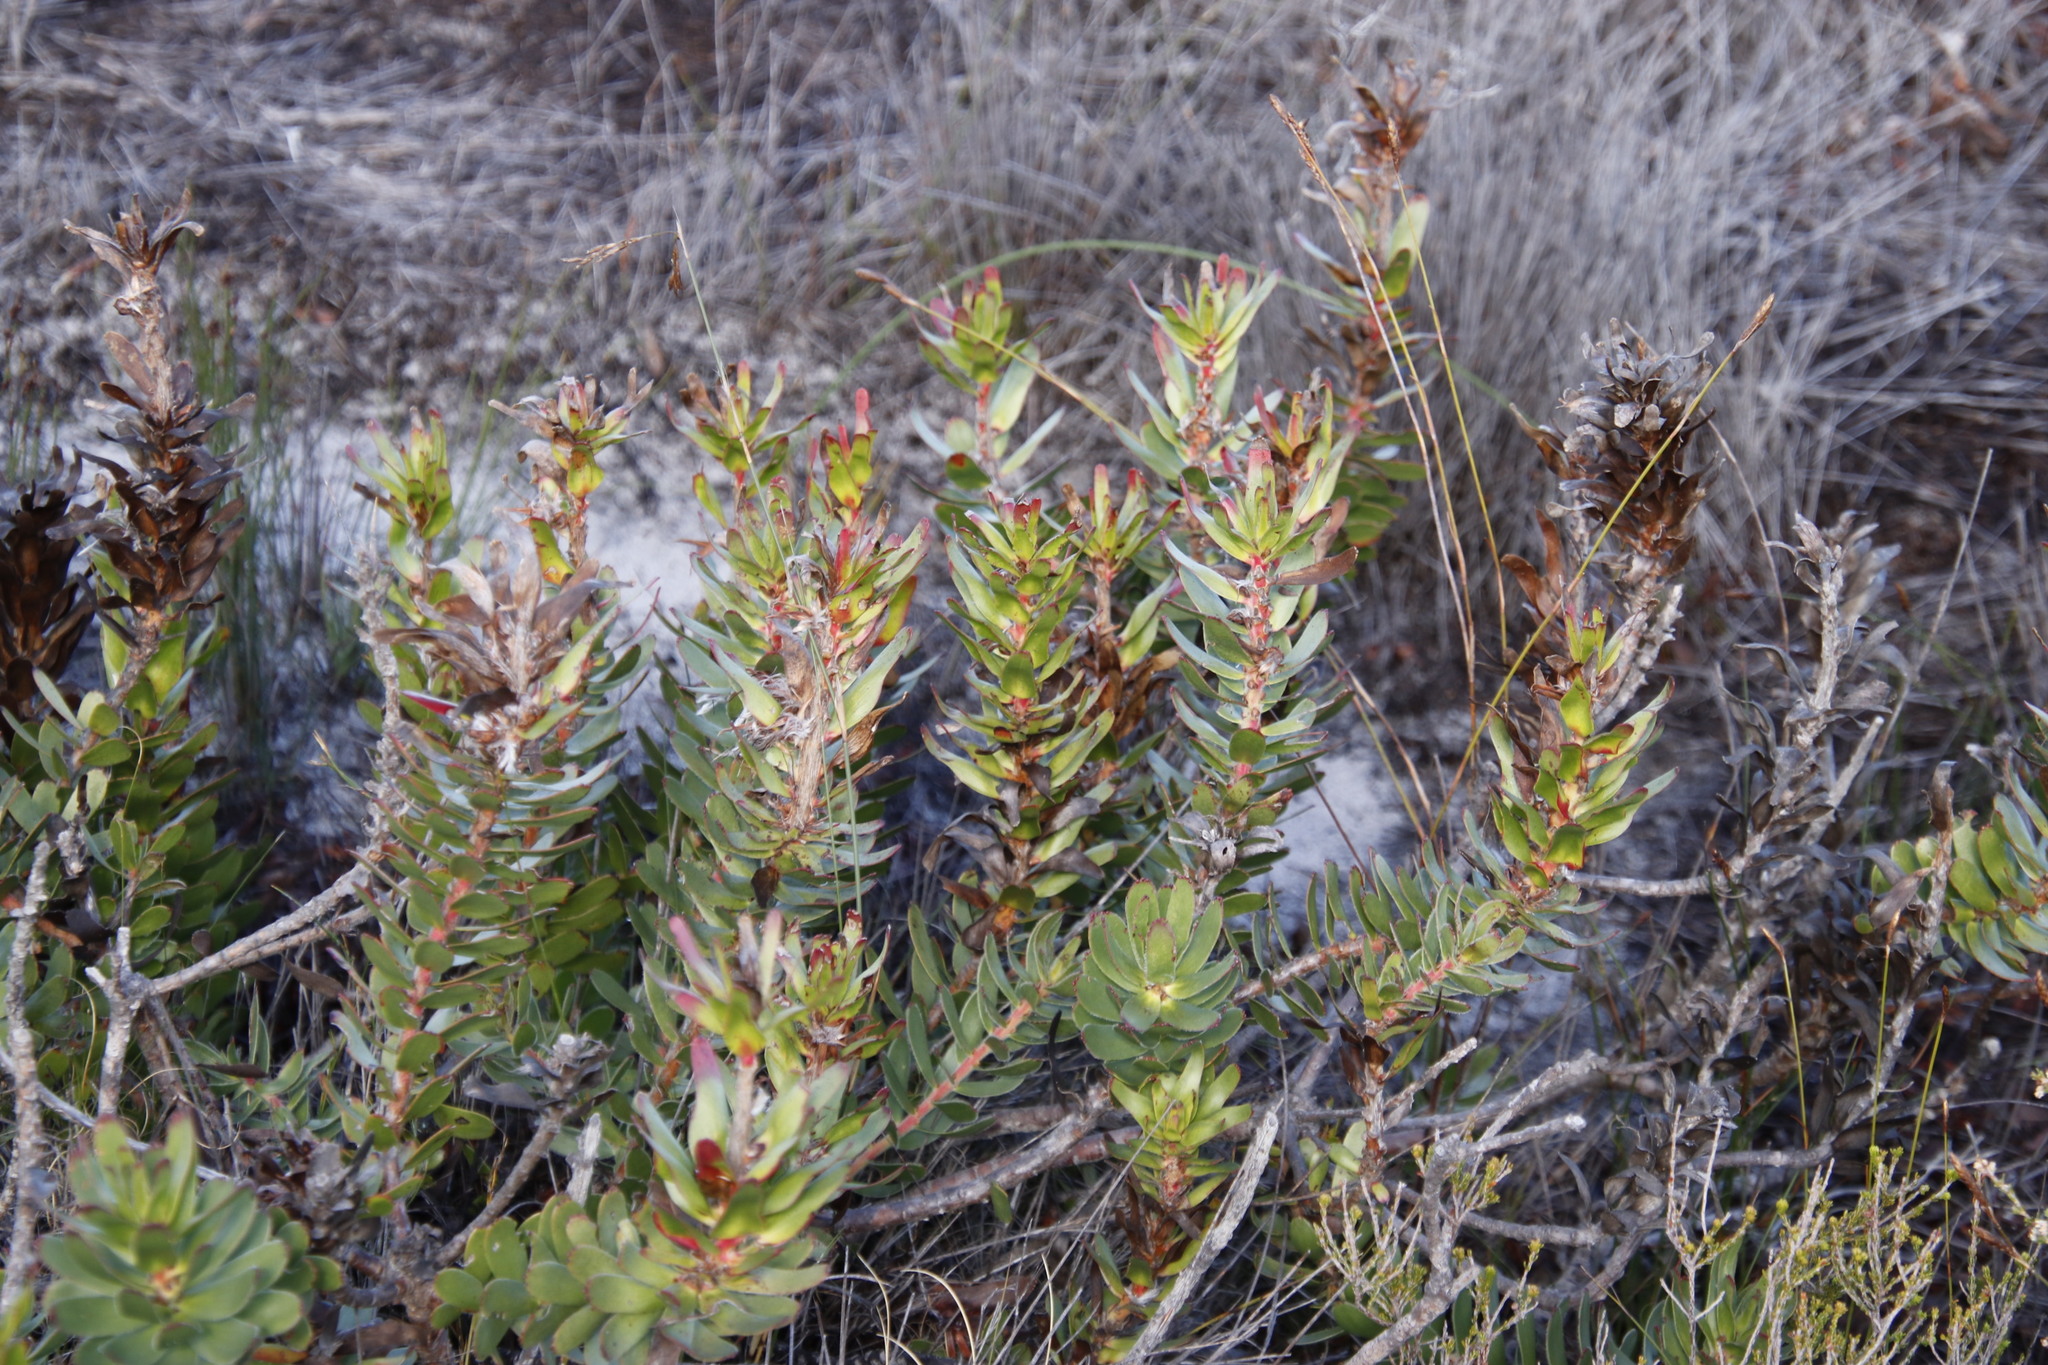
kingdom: Plantae
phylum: Tracheophyta
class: Magnoliopsida
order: Proteales
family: Proteaceae
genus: Mimetes
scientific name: Mimetes cucullatus
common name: Common pagoda
